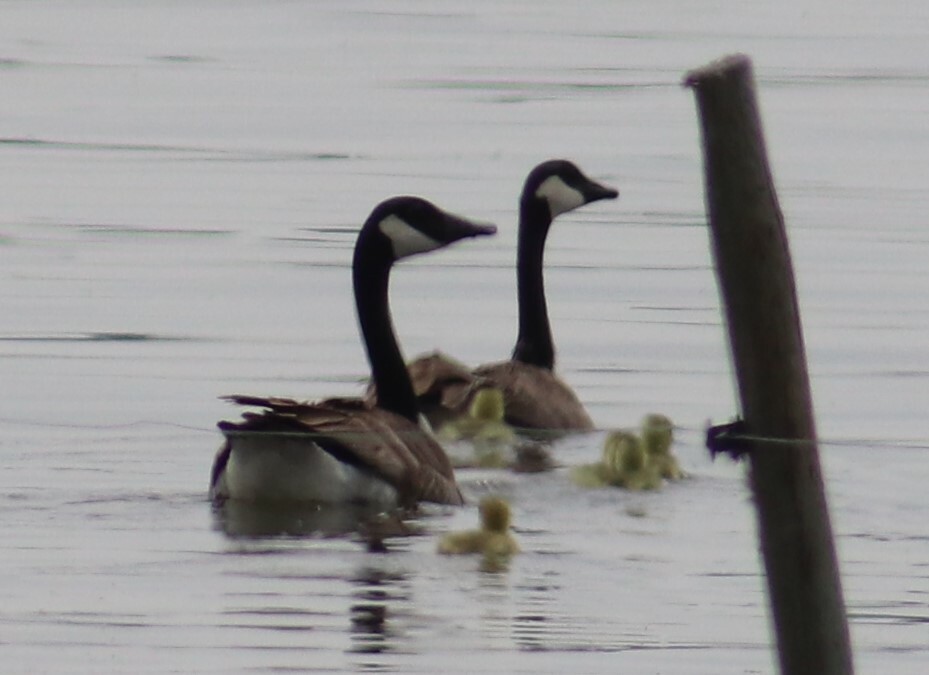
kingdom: Animalia
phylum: Chordata
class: Aves
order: Anseriformes
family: Anatidae
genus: Branta
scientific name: Branta canadensis
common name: Canada goose
